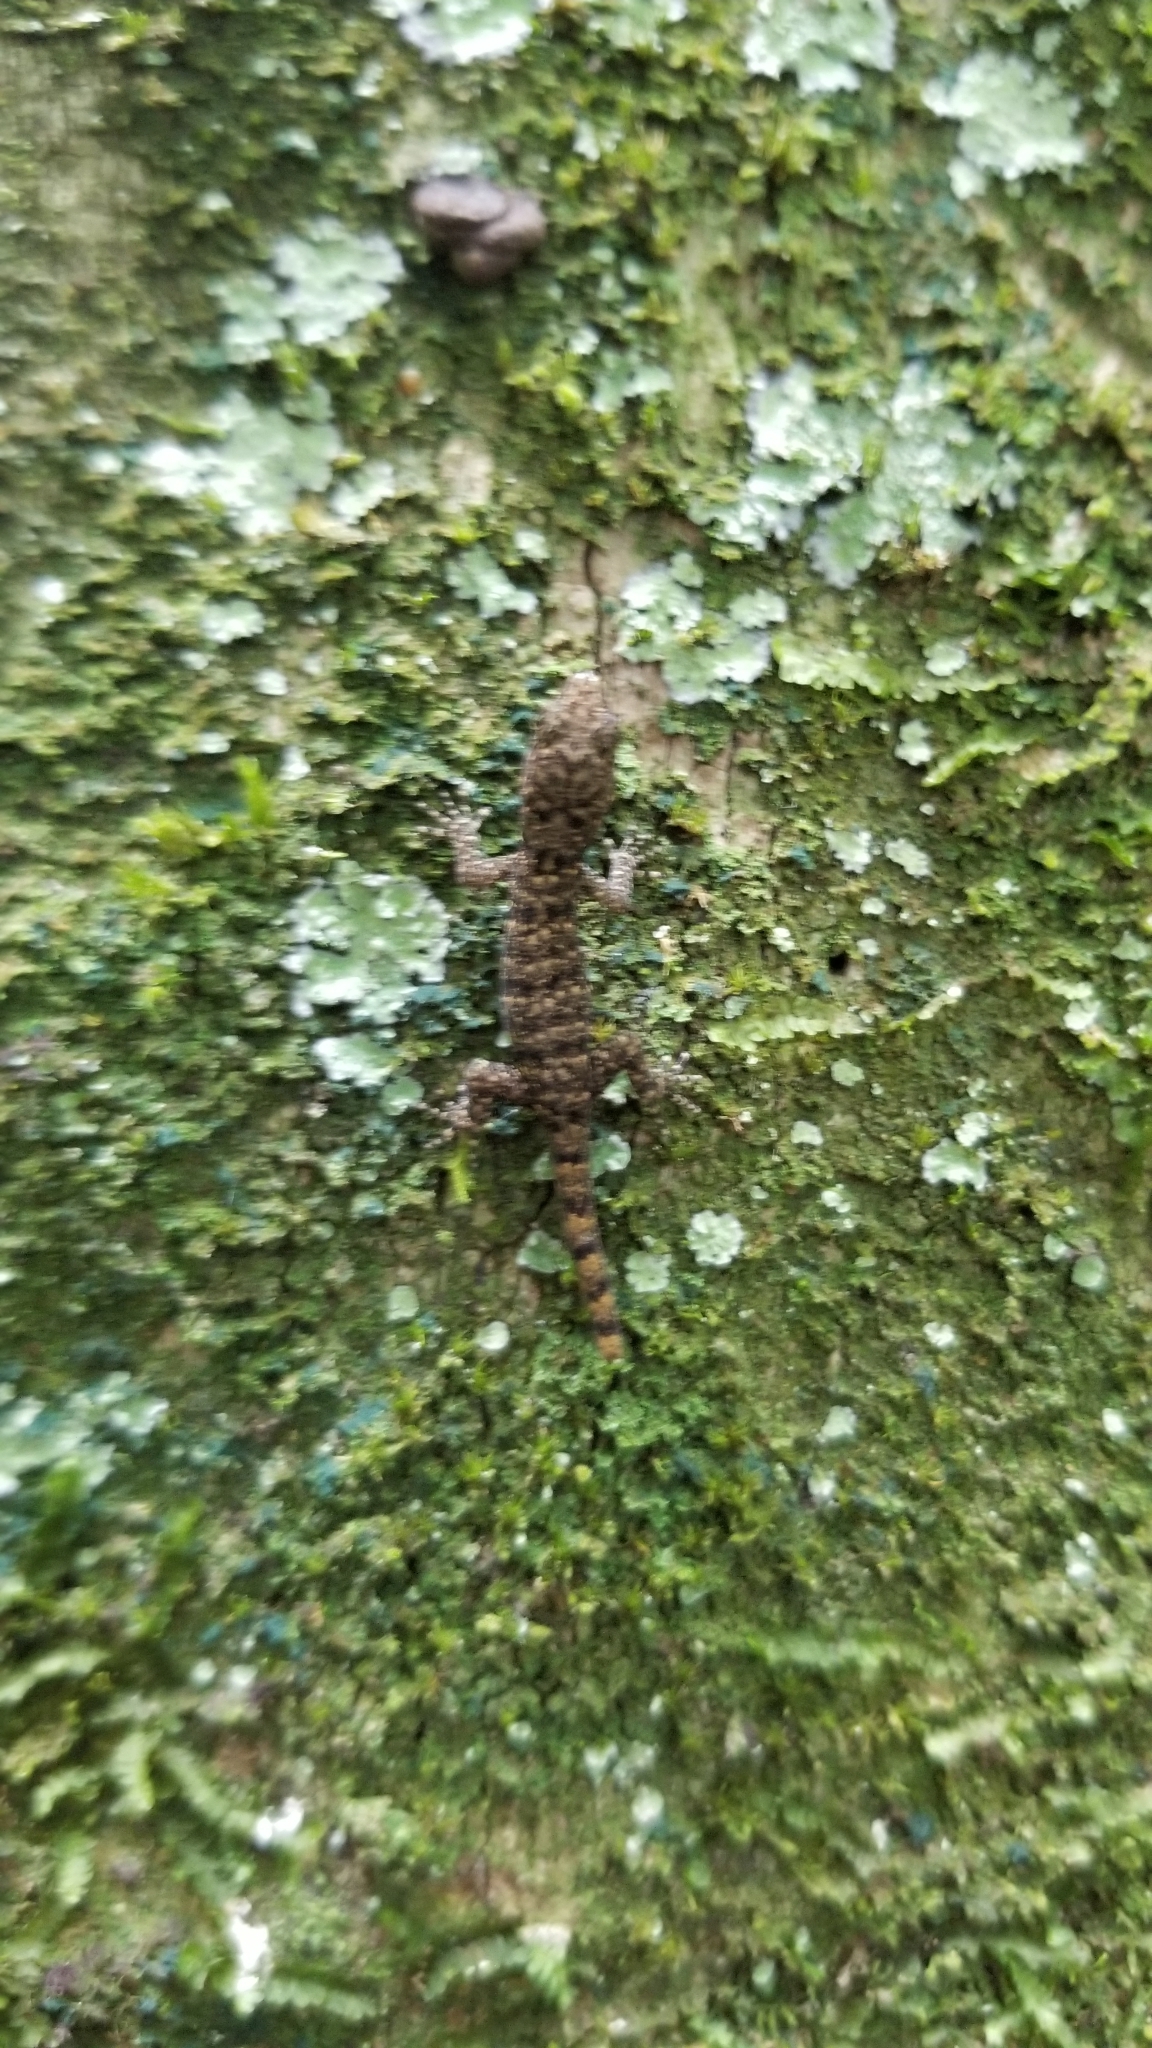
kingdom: Animalia
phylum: Chordata
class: Squamata
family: Sphaerodactylidae
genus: Gonatodes
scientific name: Gonatodes albogularis
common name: Yellow-headed gecko
